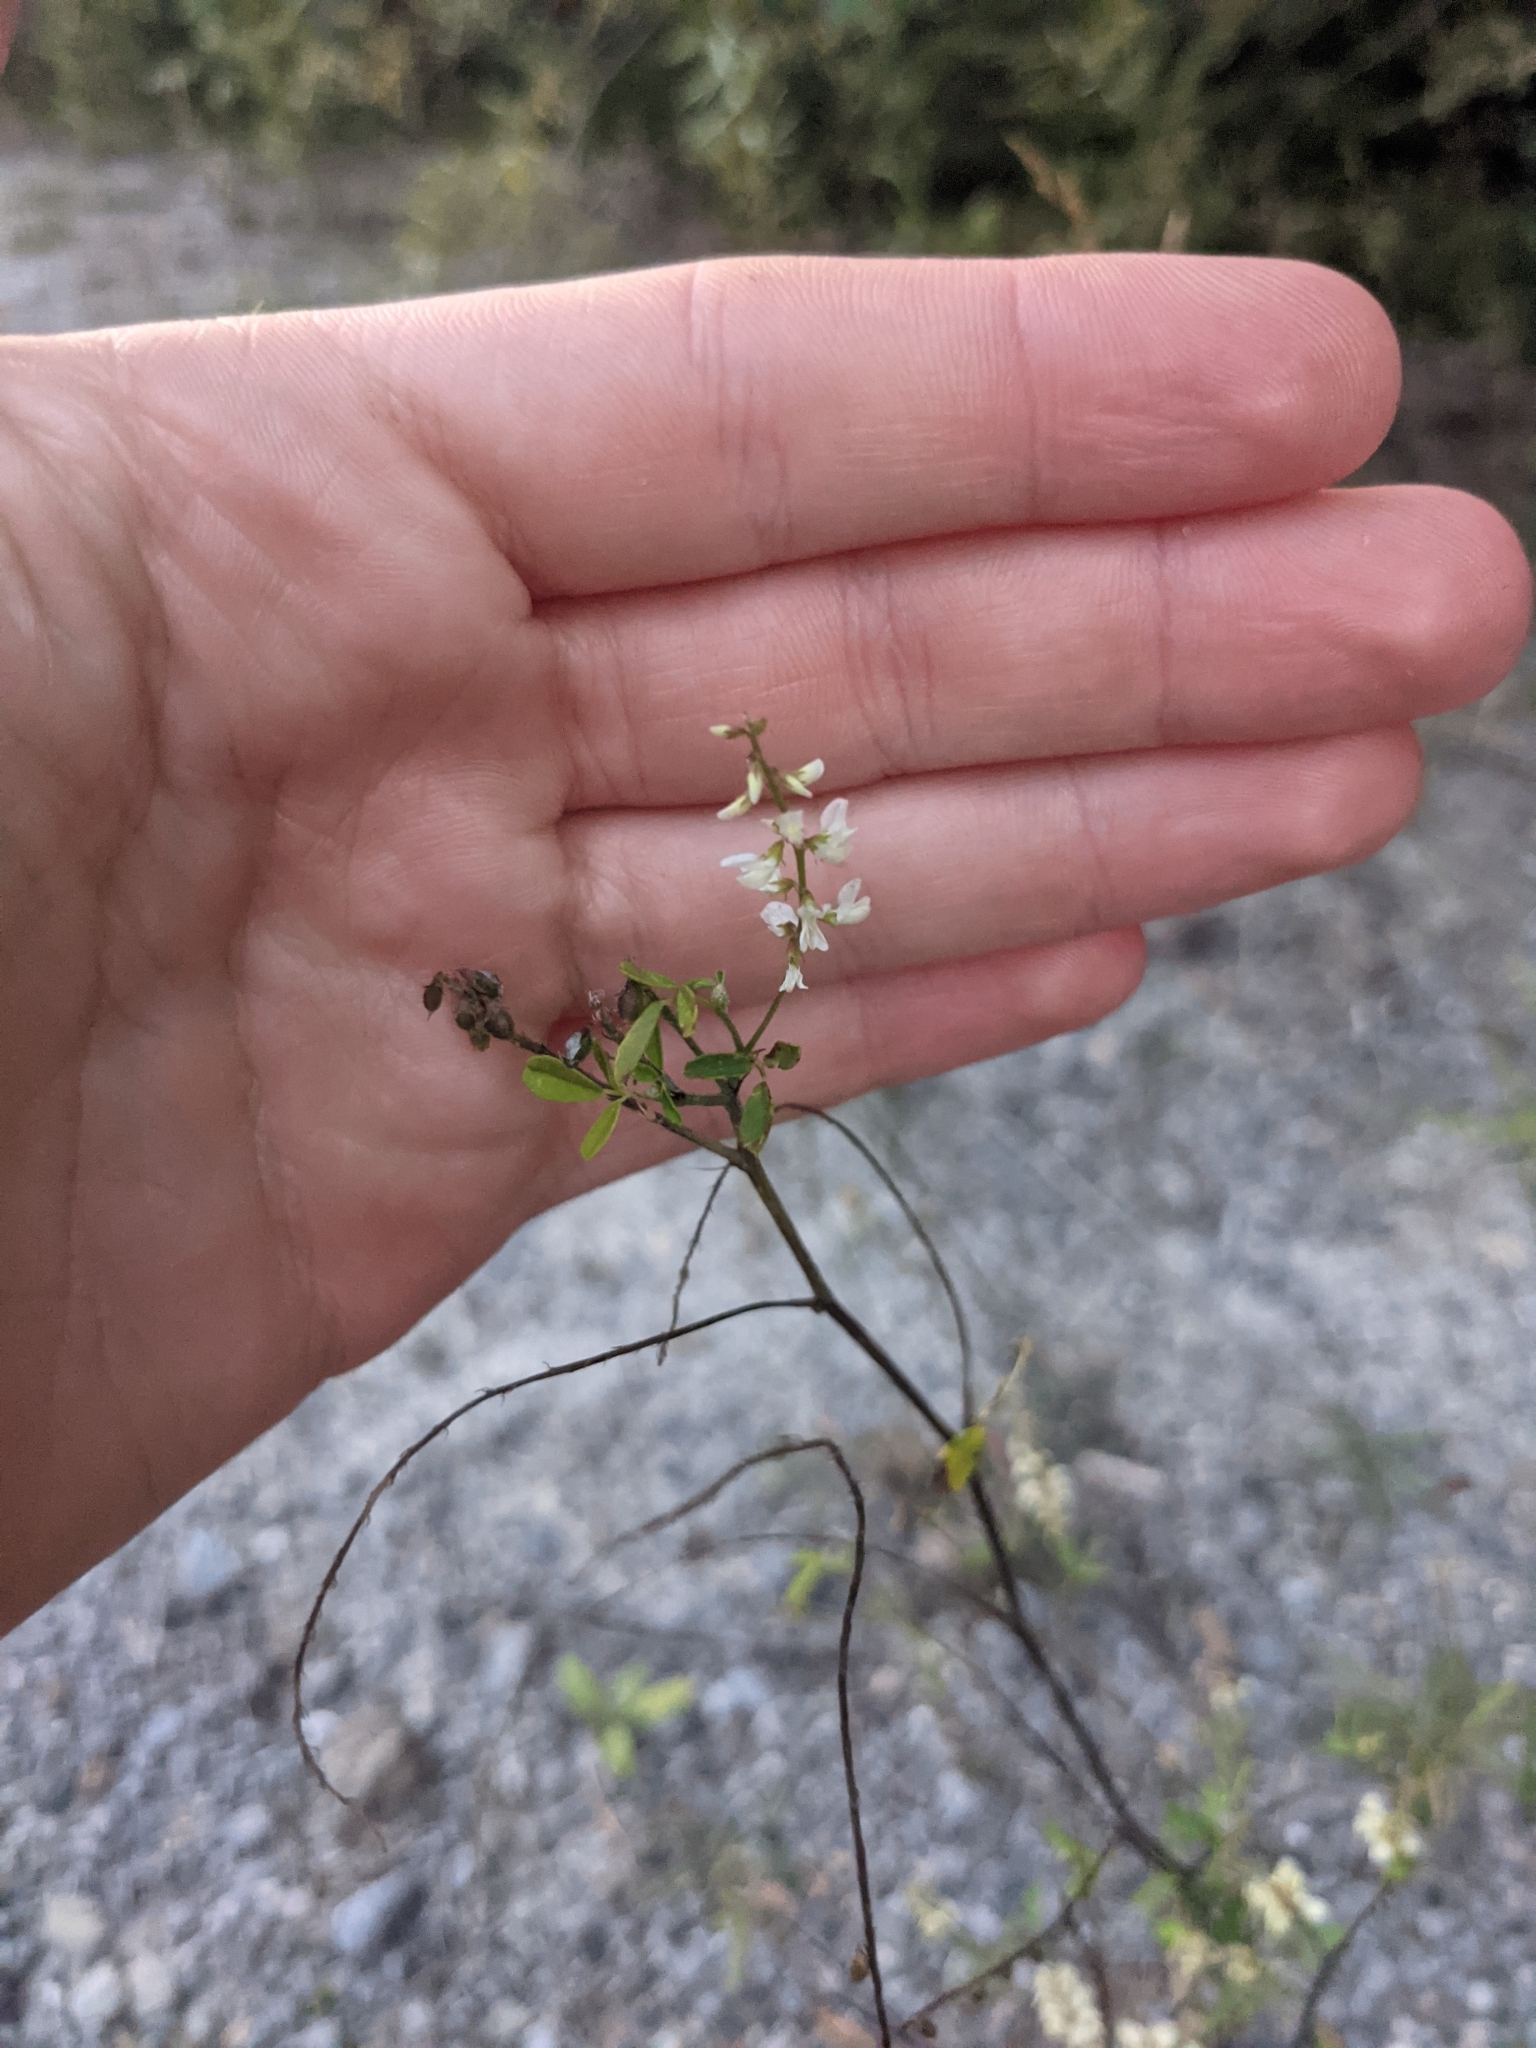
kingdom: Plantae
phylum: Tracheophyta
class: Magnoliopsida
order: Fabales
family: Fabaceae
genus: Melilotus
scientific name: Melilotus albus
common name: White melilot
